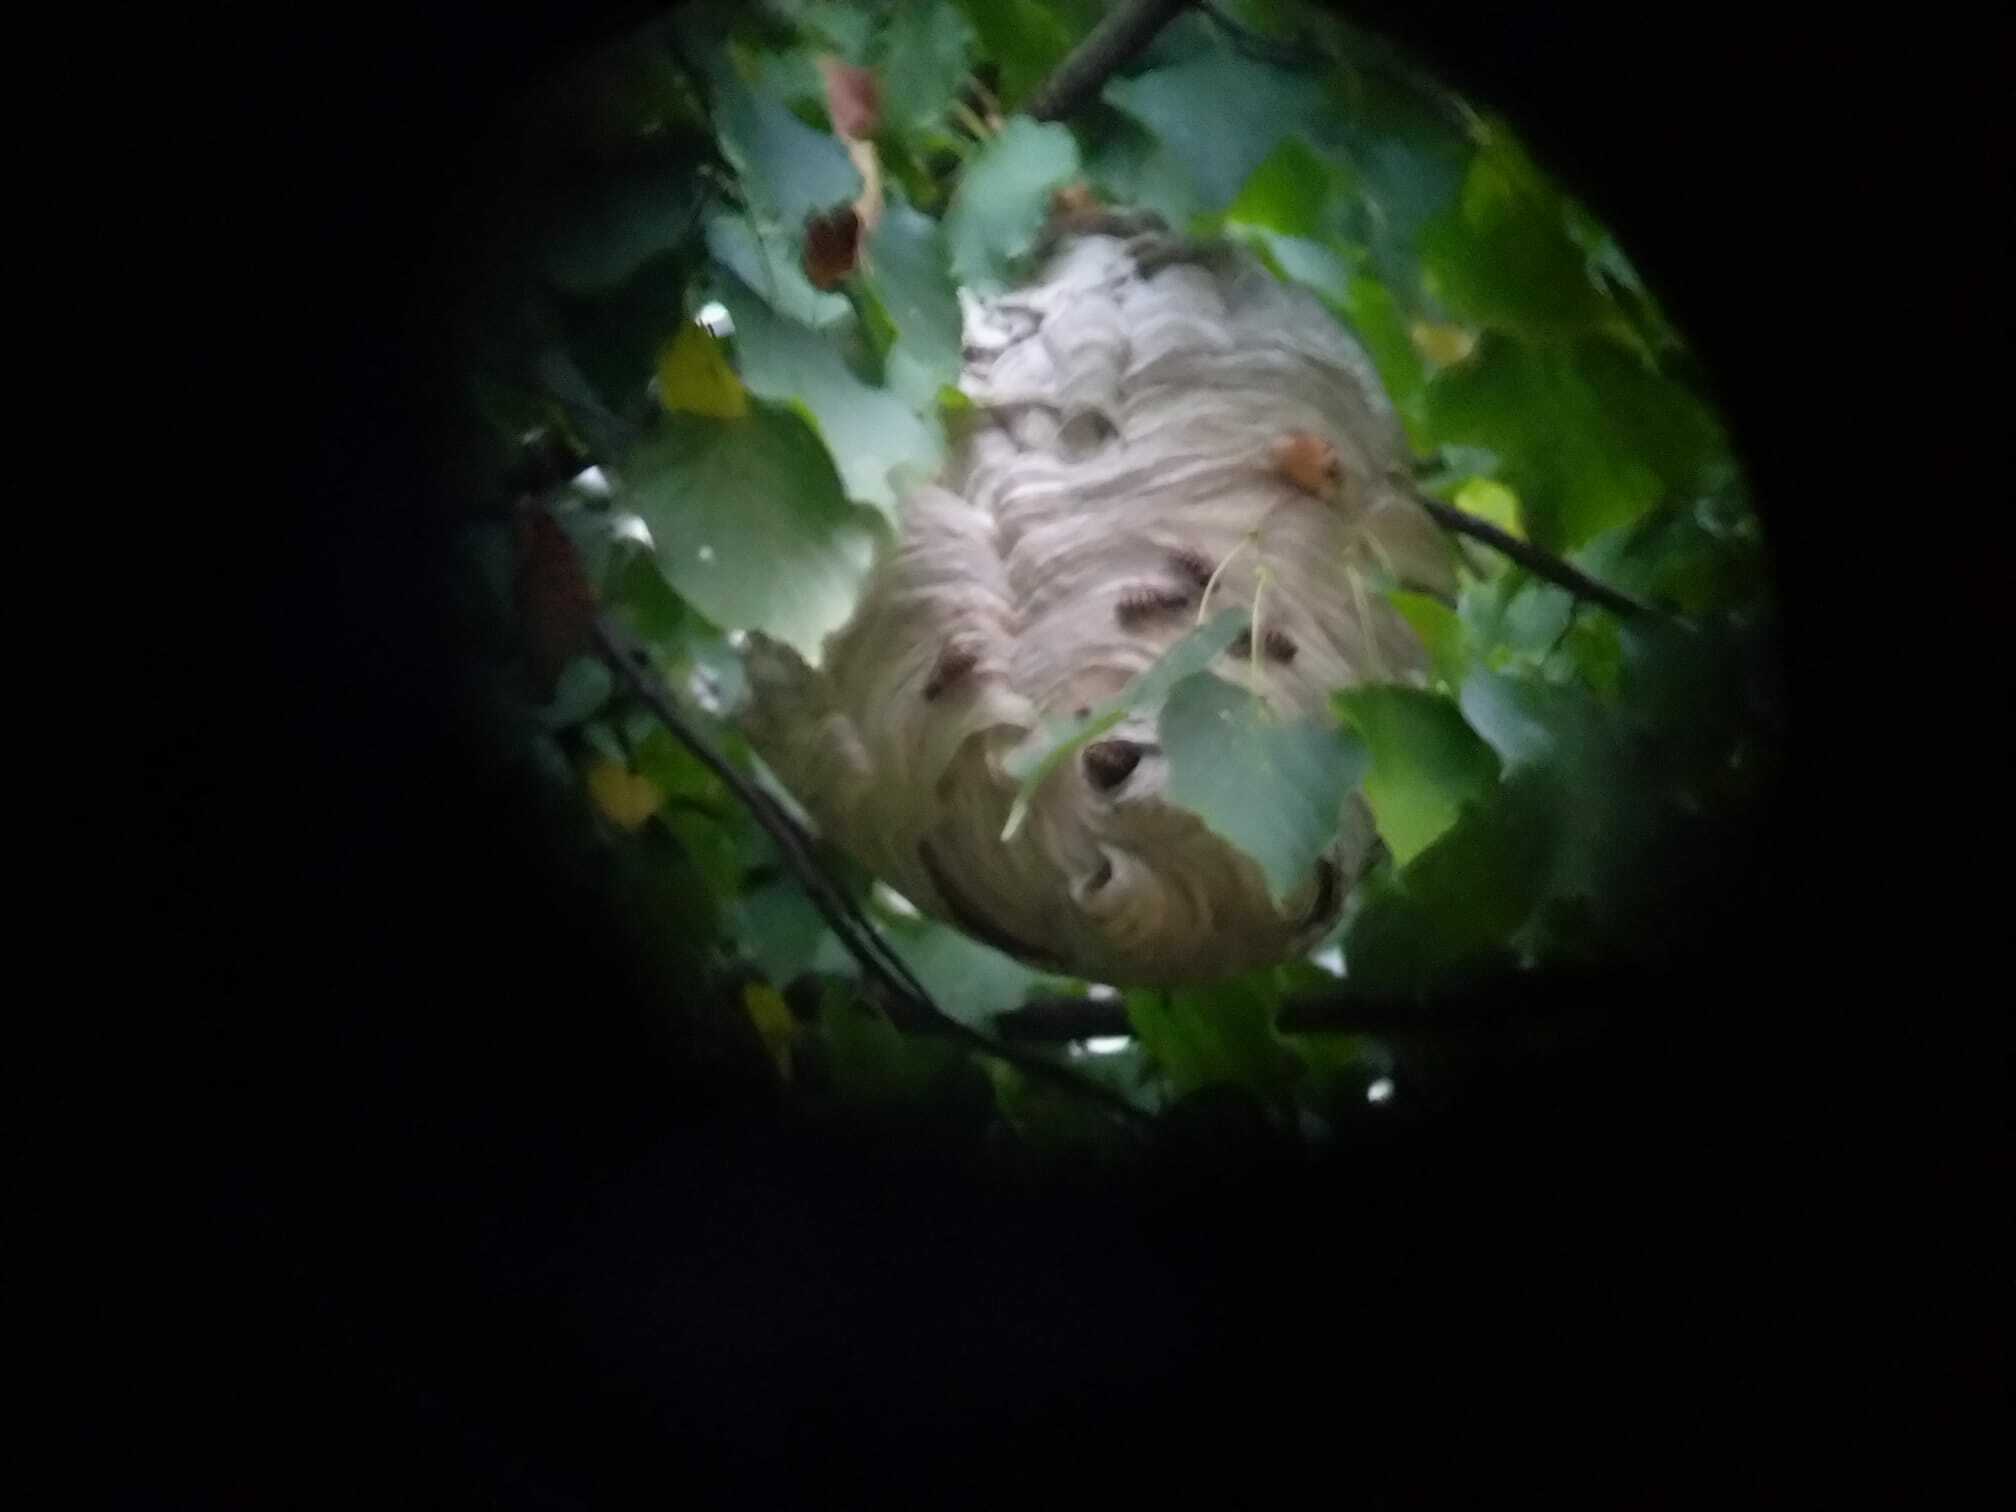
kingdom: Animalia
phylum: Arthropoda
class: Insecta
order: Hymenoptera
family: Vespidae
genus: Dolichovespula
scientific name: Dolichovespula media
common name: Median wasp
